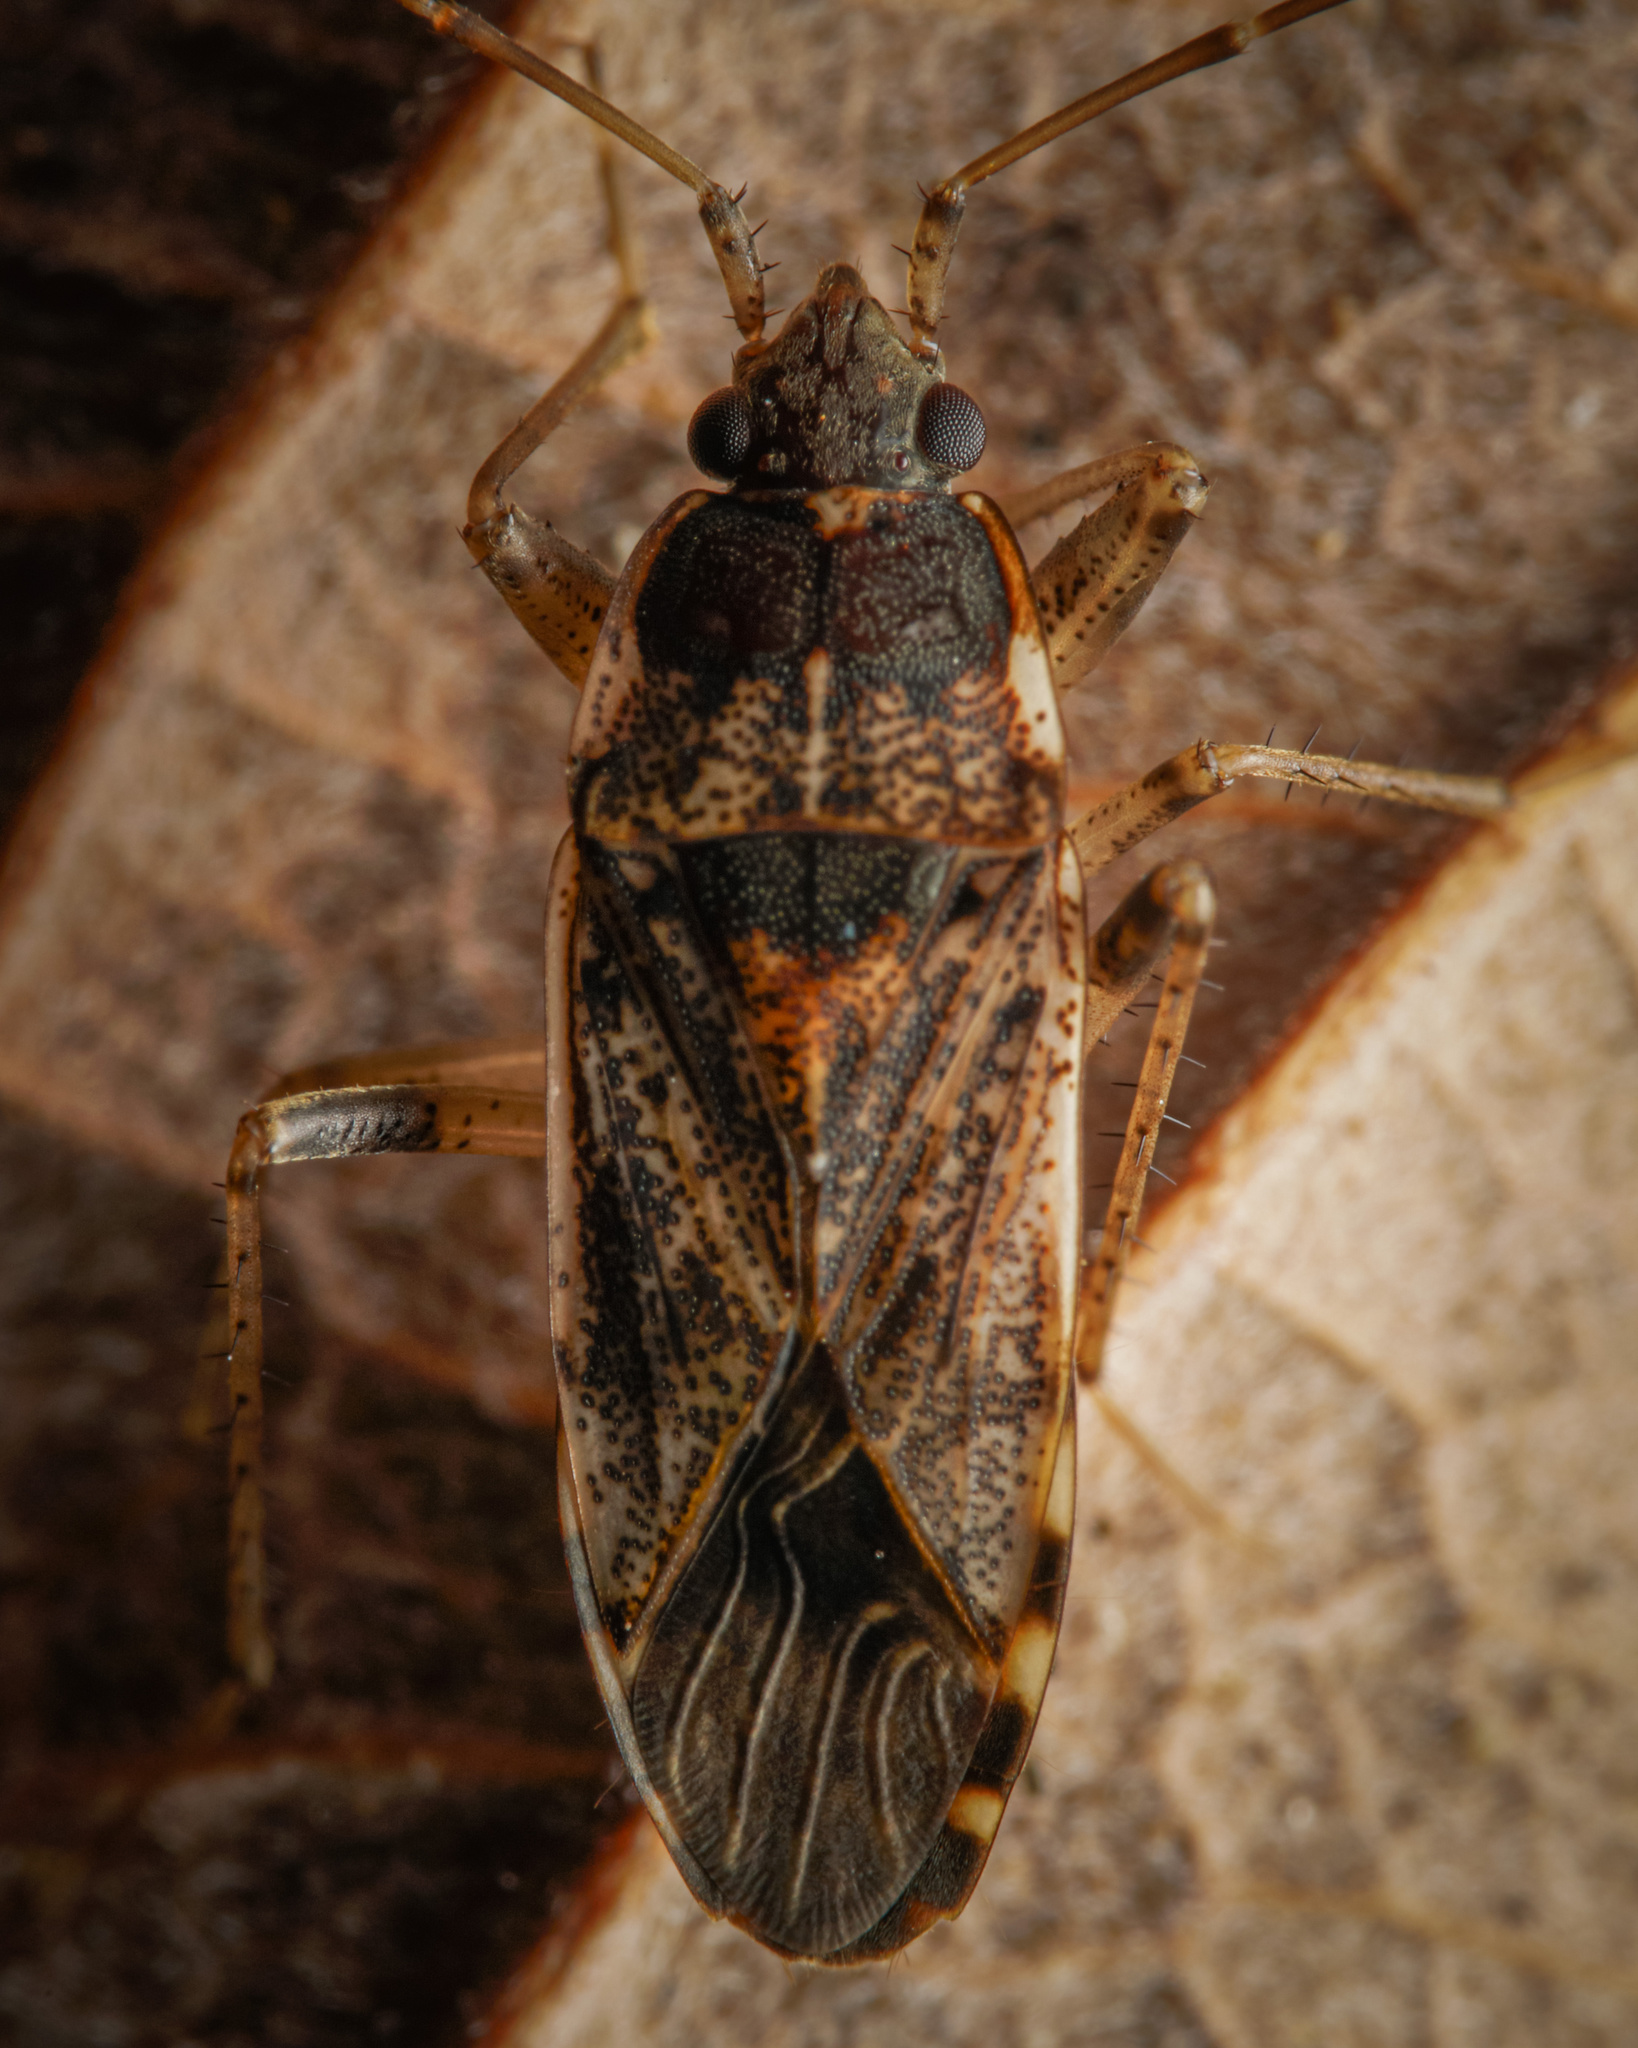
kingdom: Animalia
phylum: Arthropoda
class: Insecta
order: Hemiptera
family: Rhyparochromidae
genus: Elasmolomus
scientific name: Elasmolomus pallens
